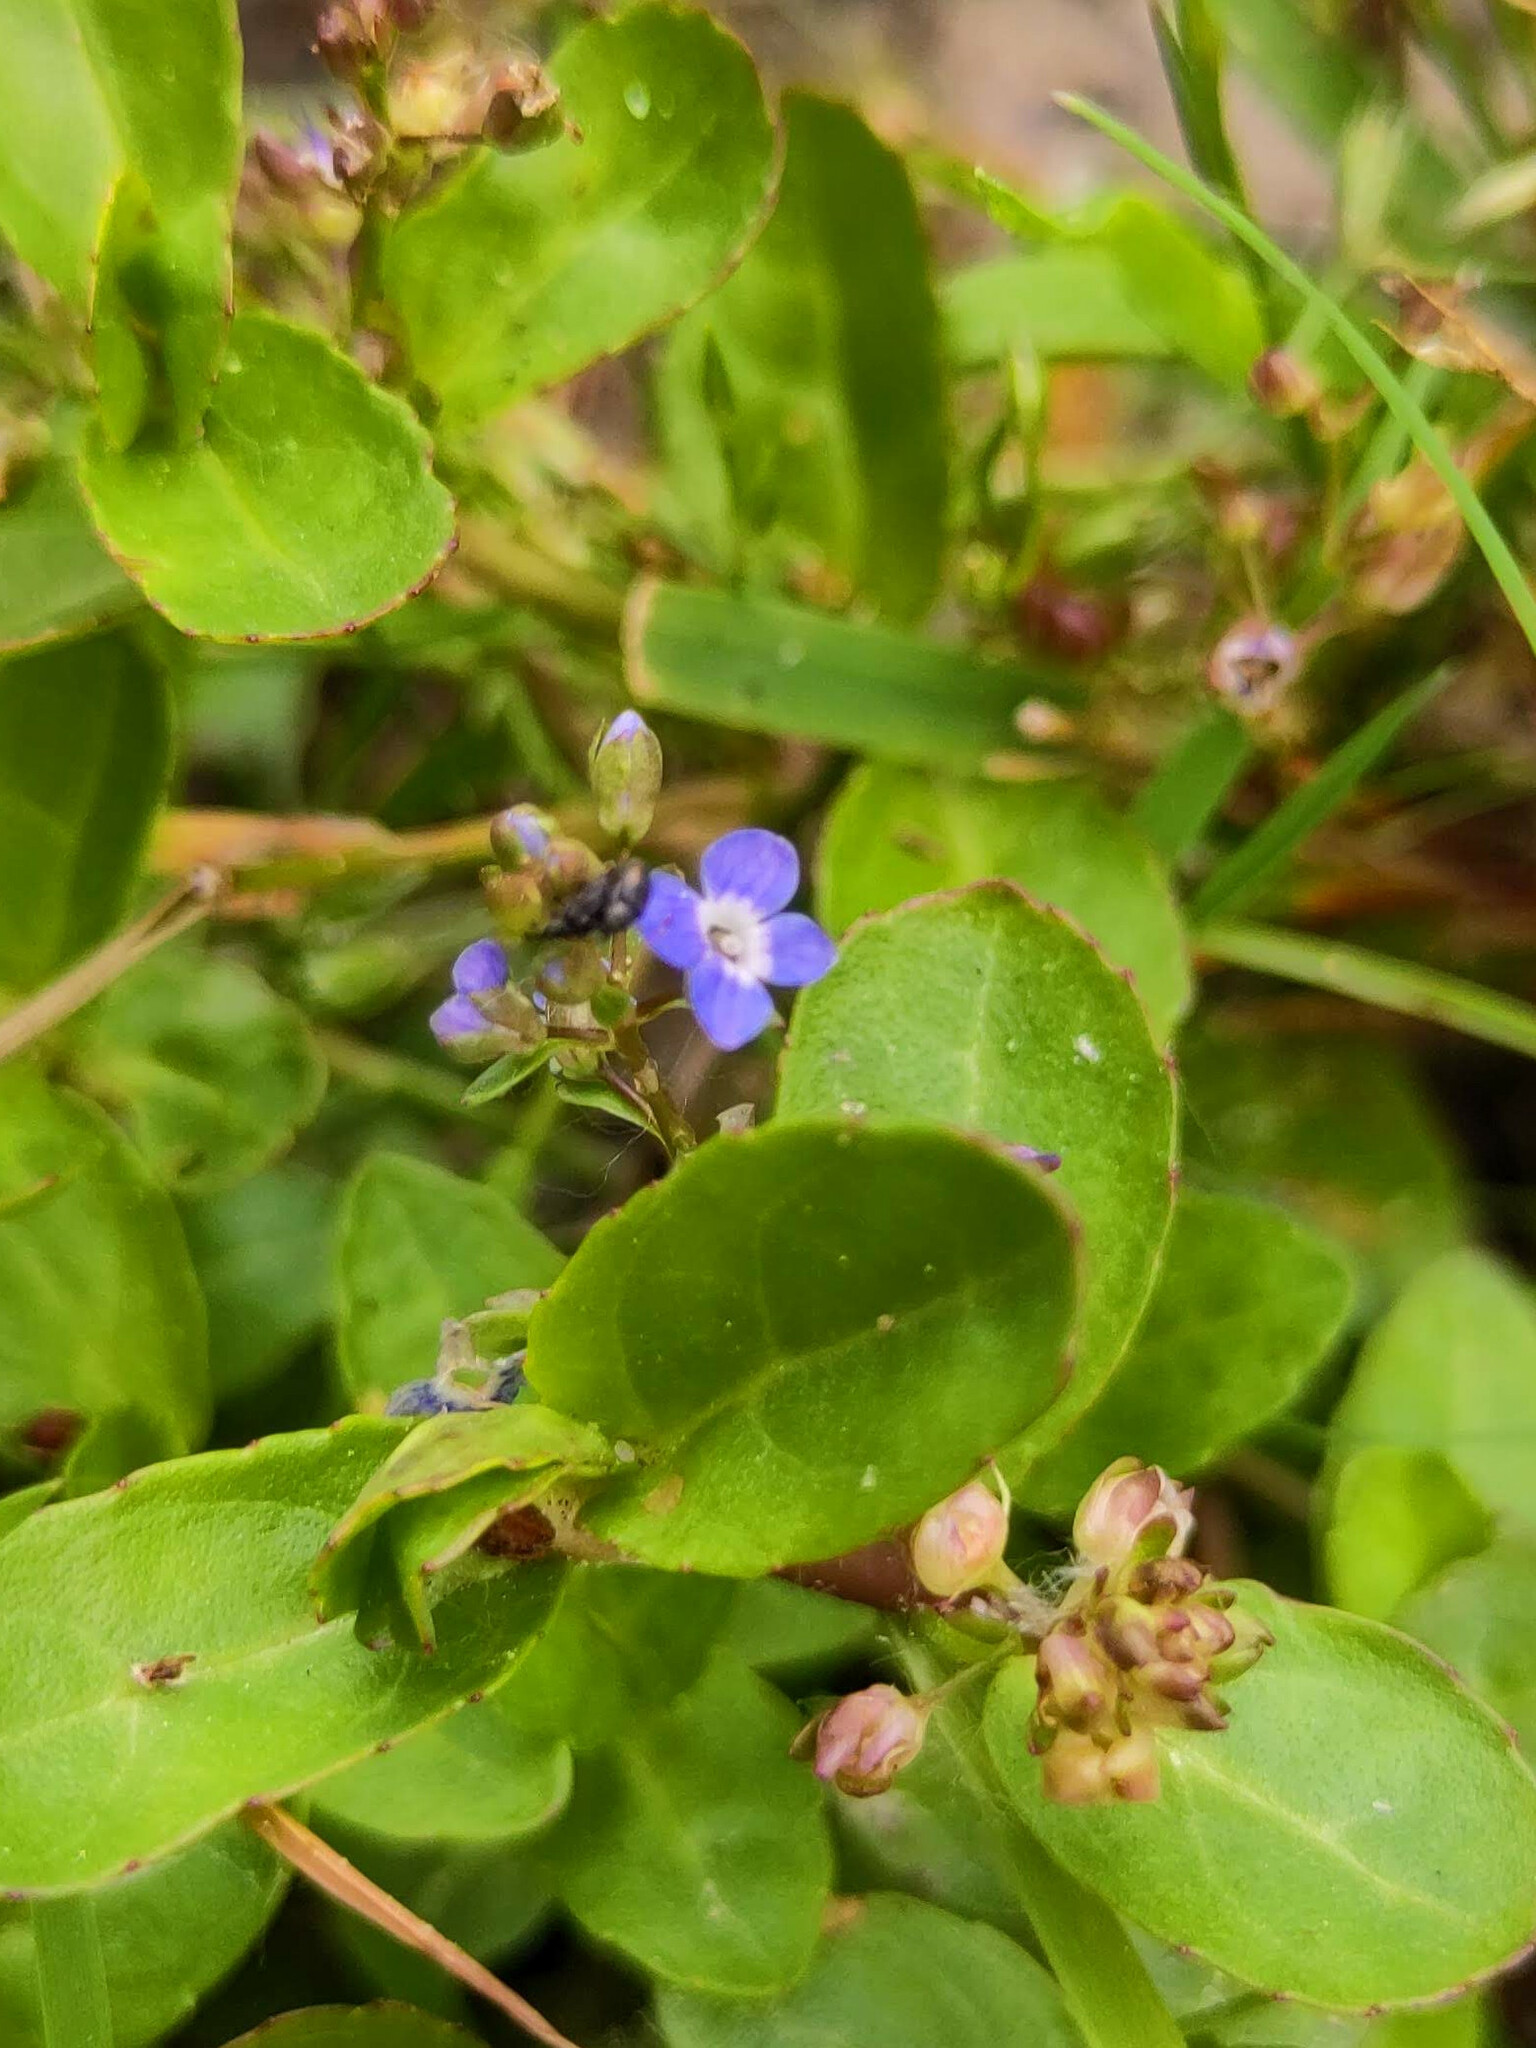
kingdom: Plantae
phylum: Tracheophyta
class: Magnoliopsida
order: Lamiales
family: Plantaginaceae
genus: Veronica
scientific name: Veronica beccabunga
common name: Brooklime
